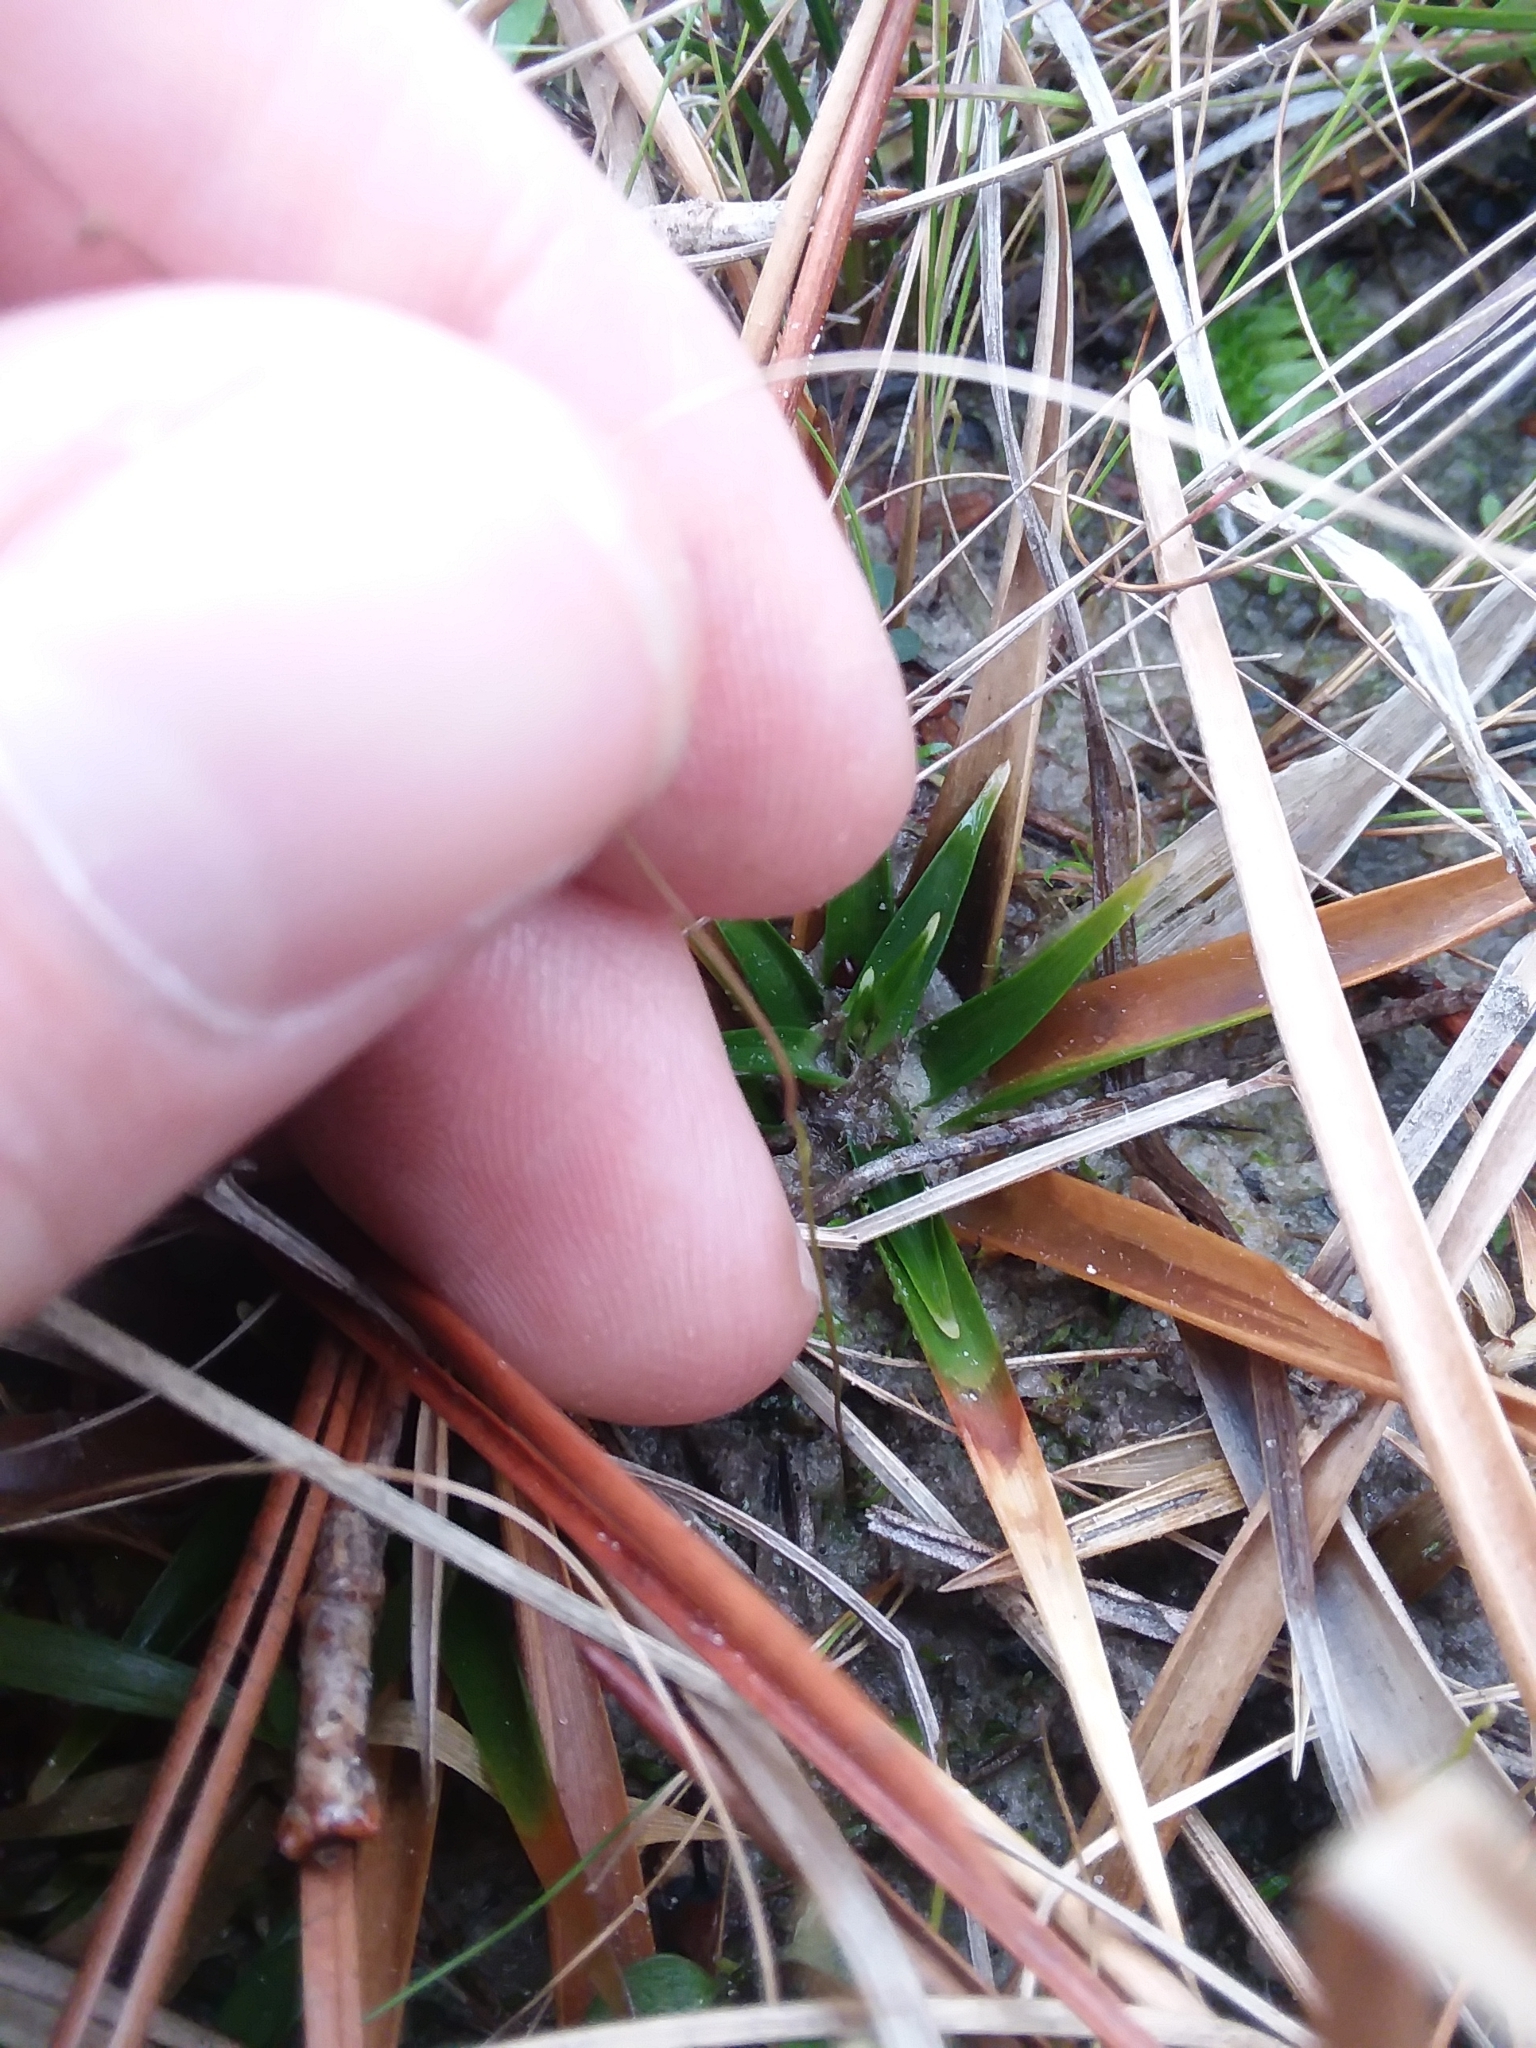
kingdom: Plantae
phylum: Tracheophyta
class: Magnoliopsida
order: Lamiales
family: Lentibulariaceae
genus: Utricularia
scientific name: Utricularia subulata
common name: Tiny bladderwort
